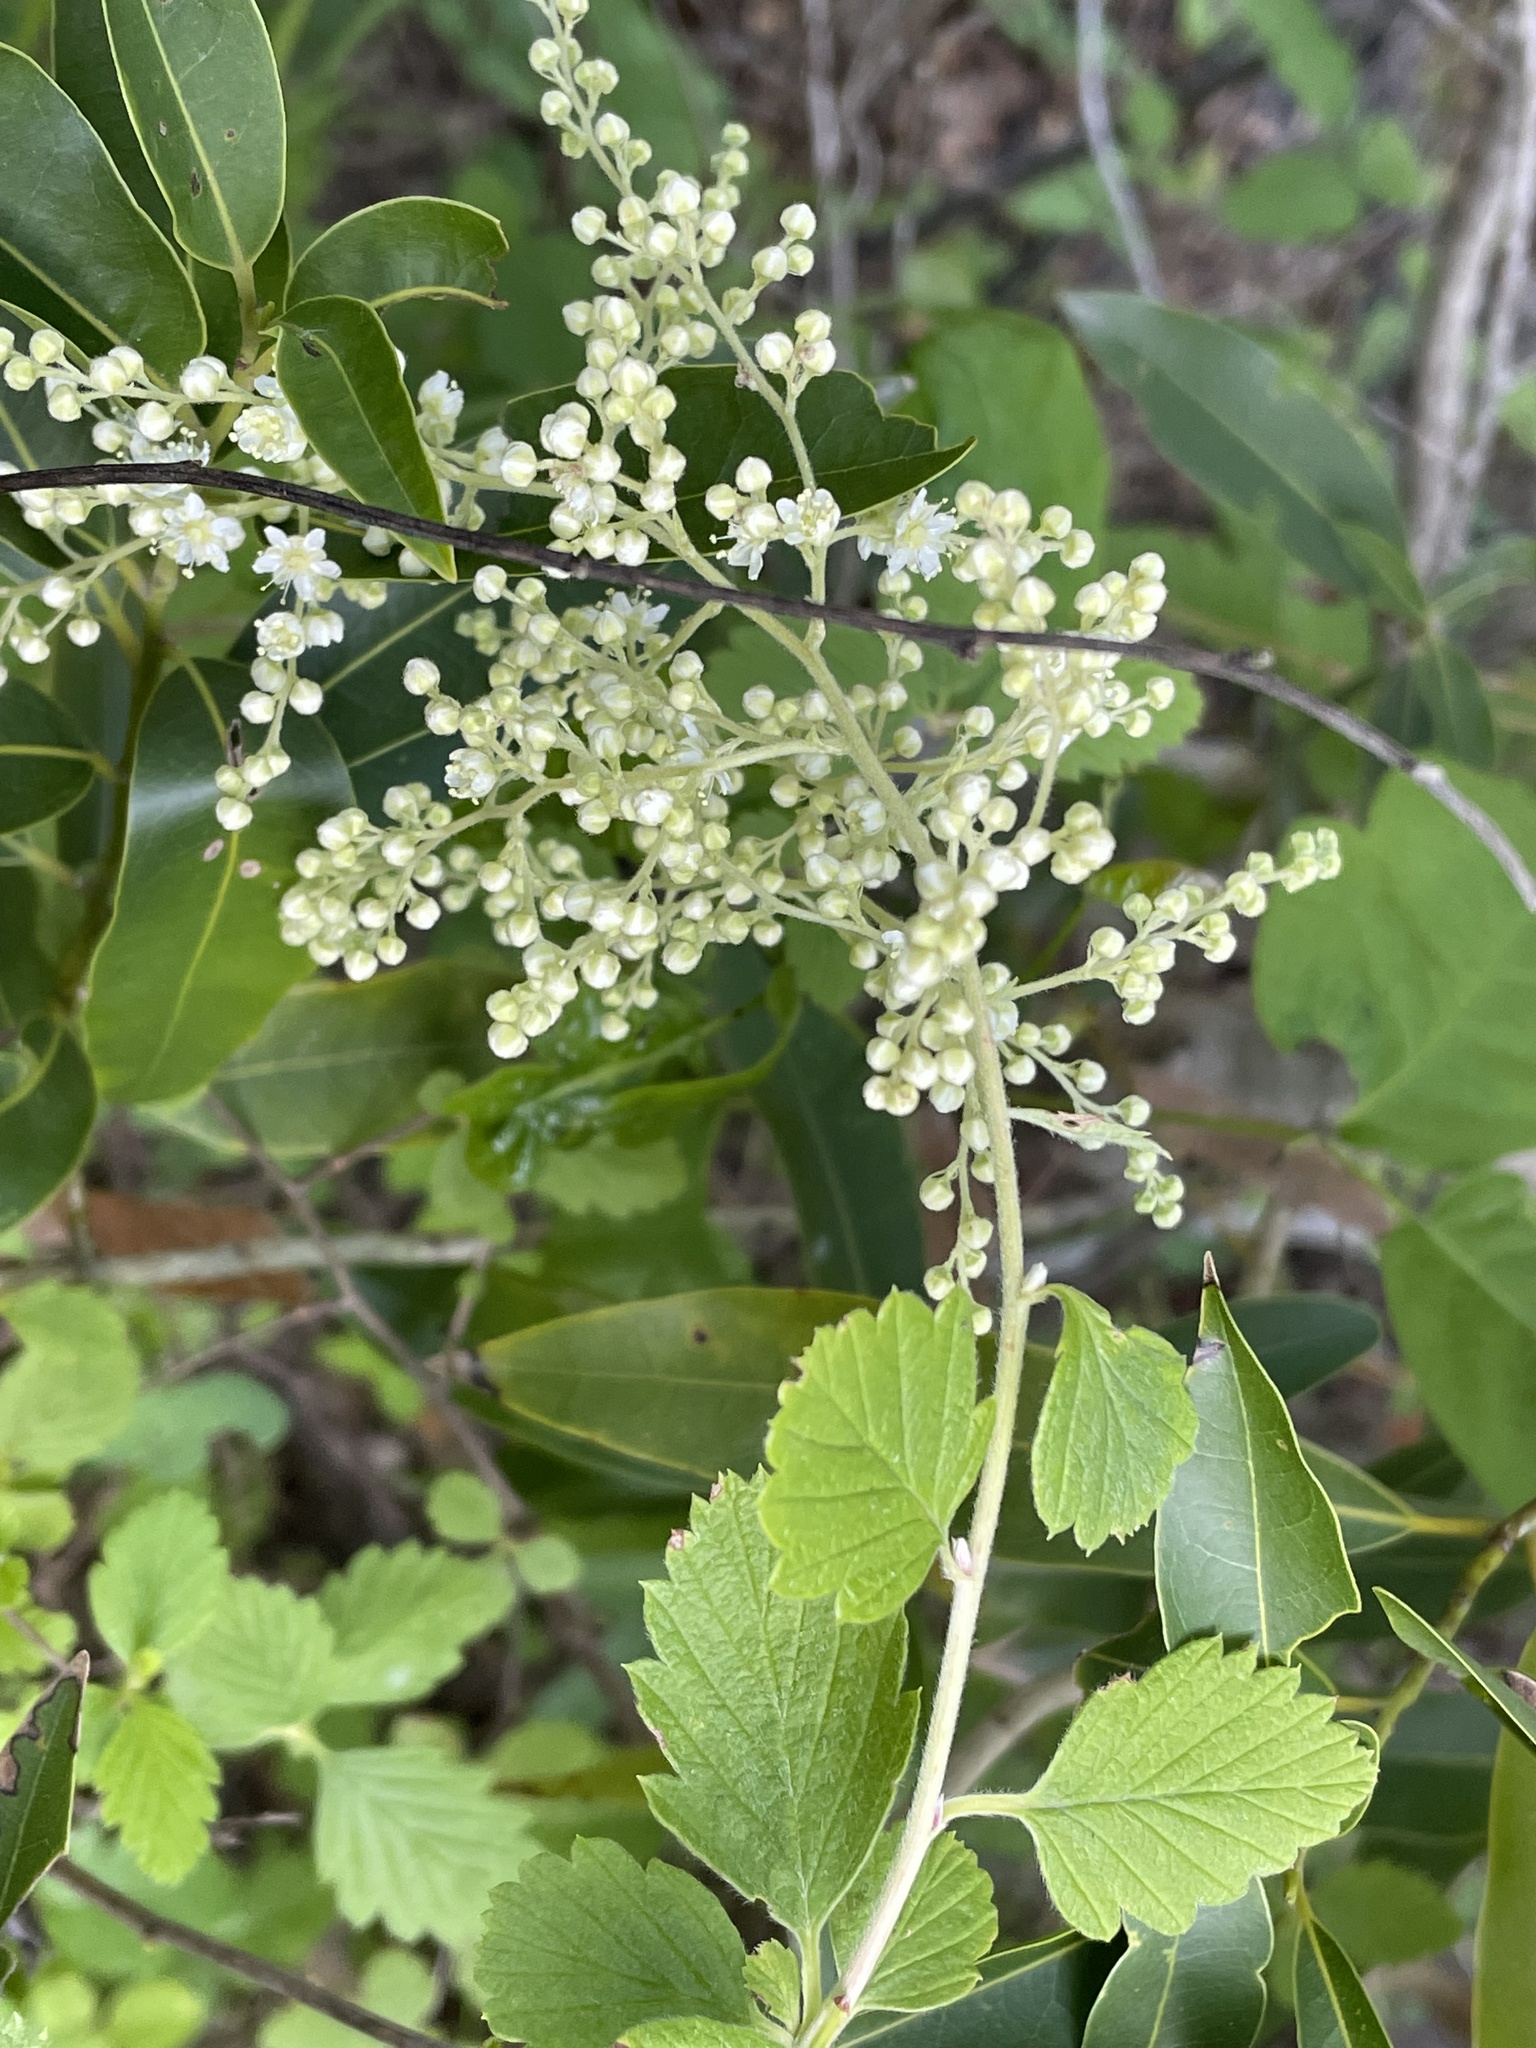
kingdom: Plantae
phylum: Tracheophyta
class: Magnoliopsida
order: Rosales
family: Rosaceae
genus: Holodiscus
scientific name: Holodiscus discolor
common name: Oceanspray
